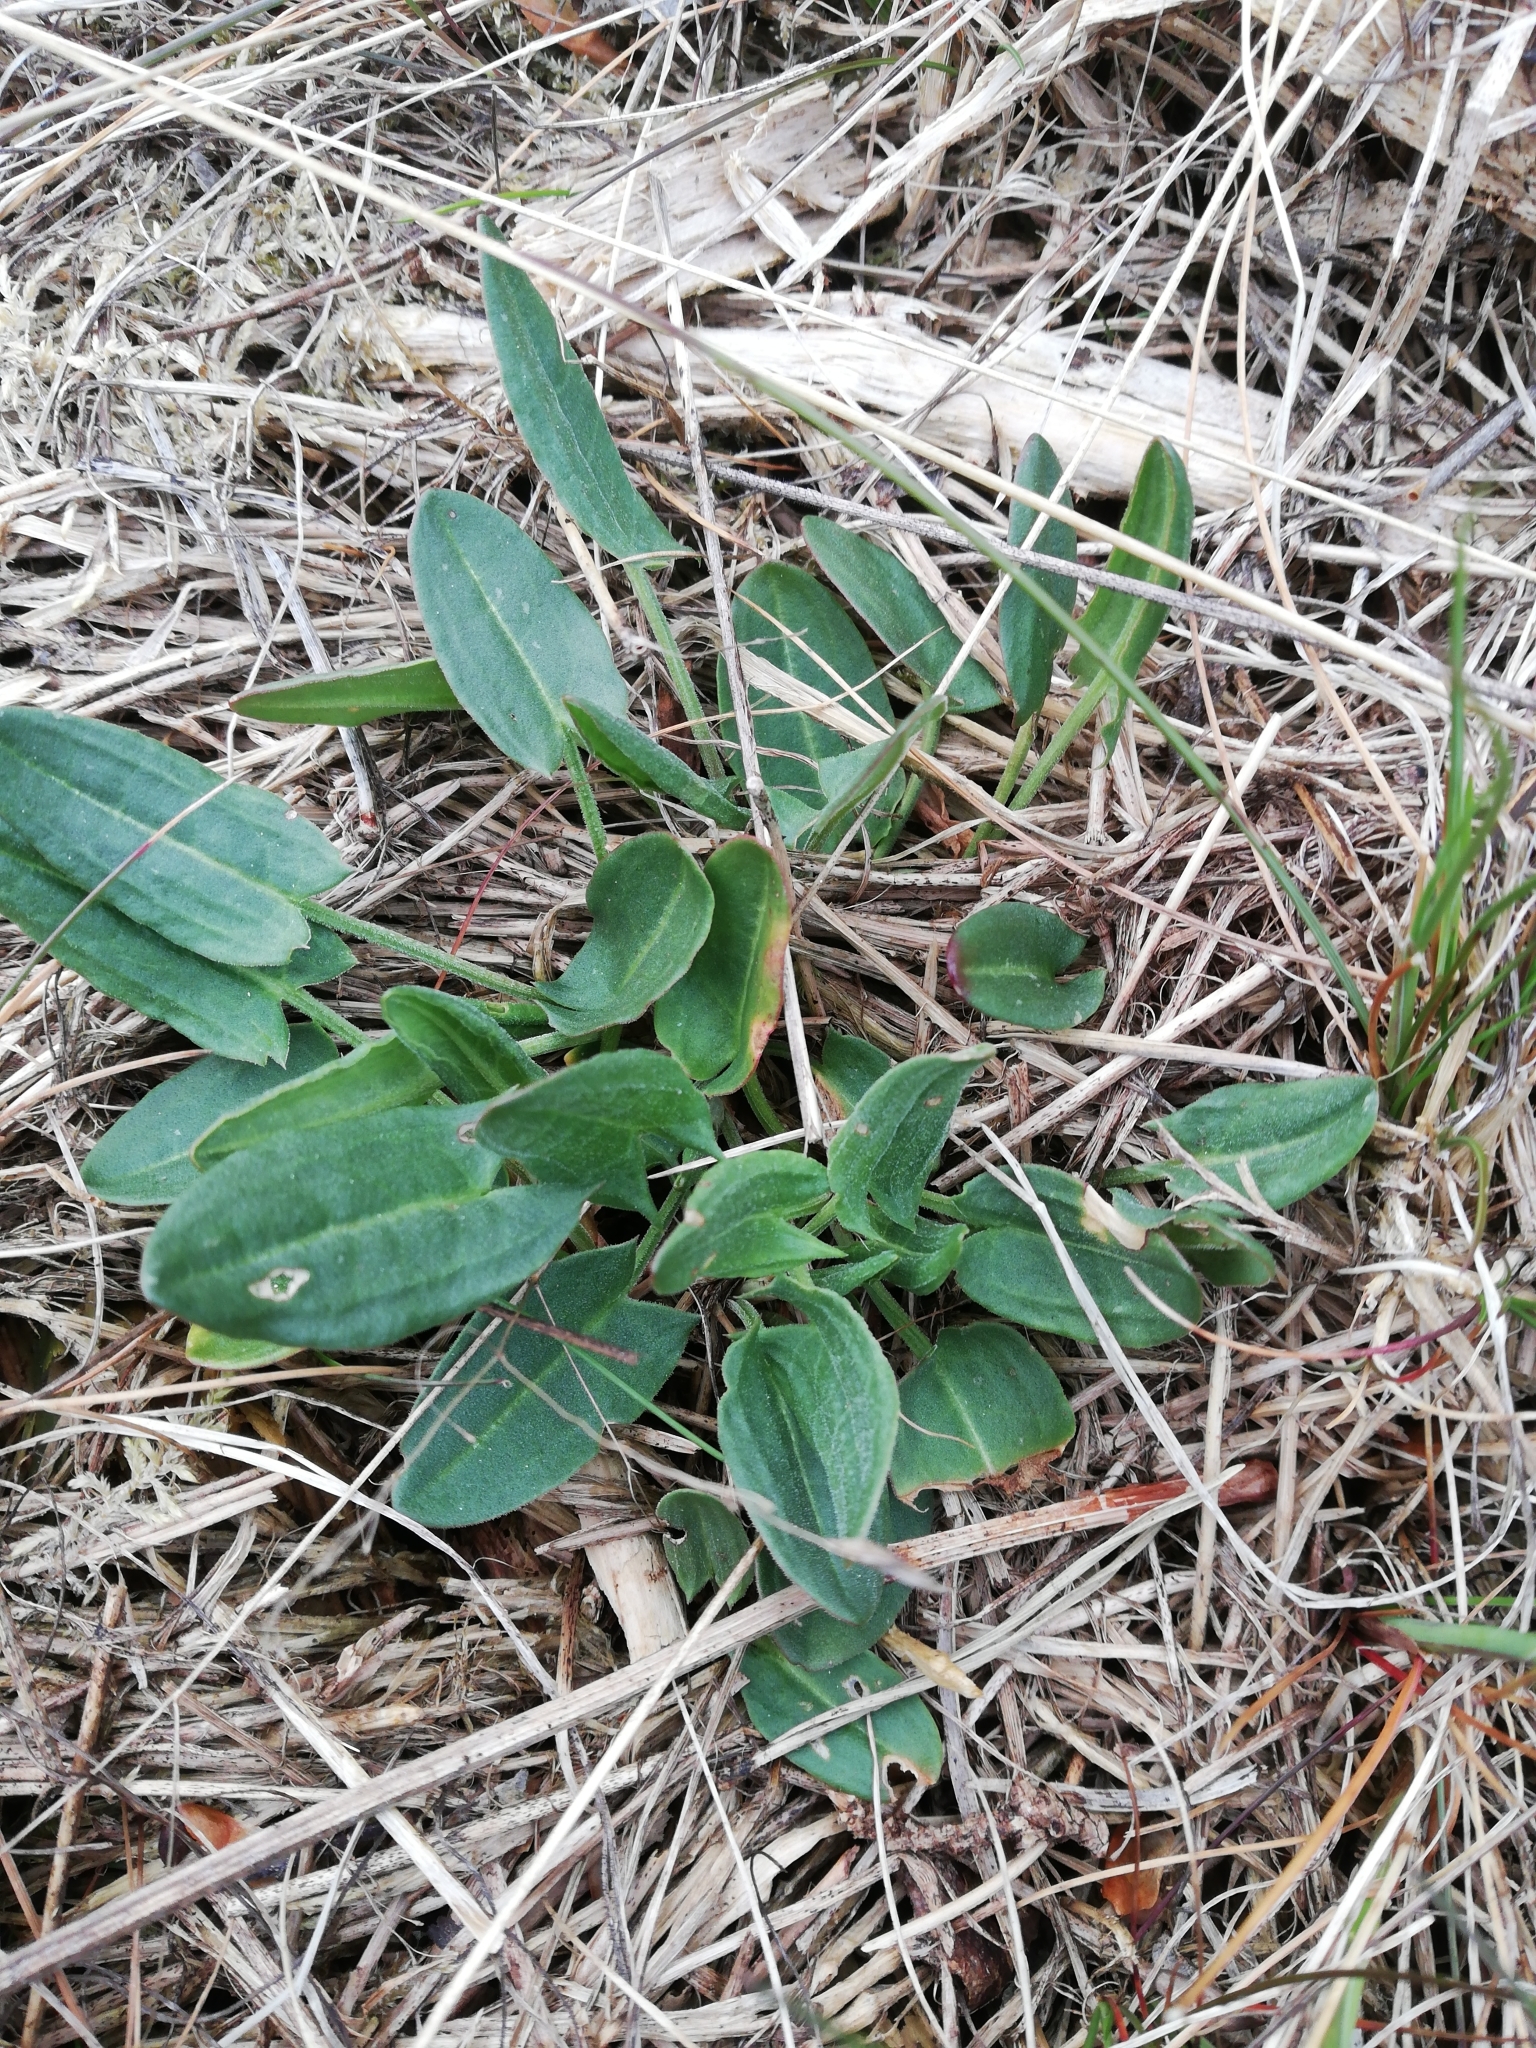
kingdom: Plantae
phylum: Tracheophyta
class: Magnoliopsida
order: Caryophyllales
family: Polygonaceae
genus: Rumex
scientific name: Rumex acetosa
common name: Garden sorrel
